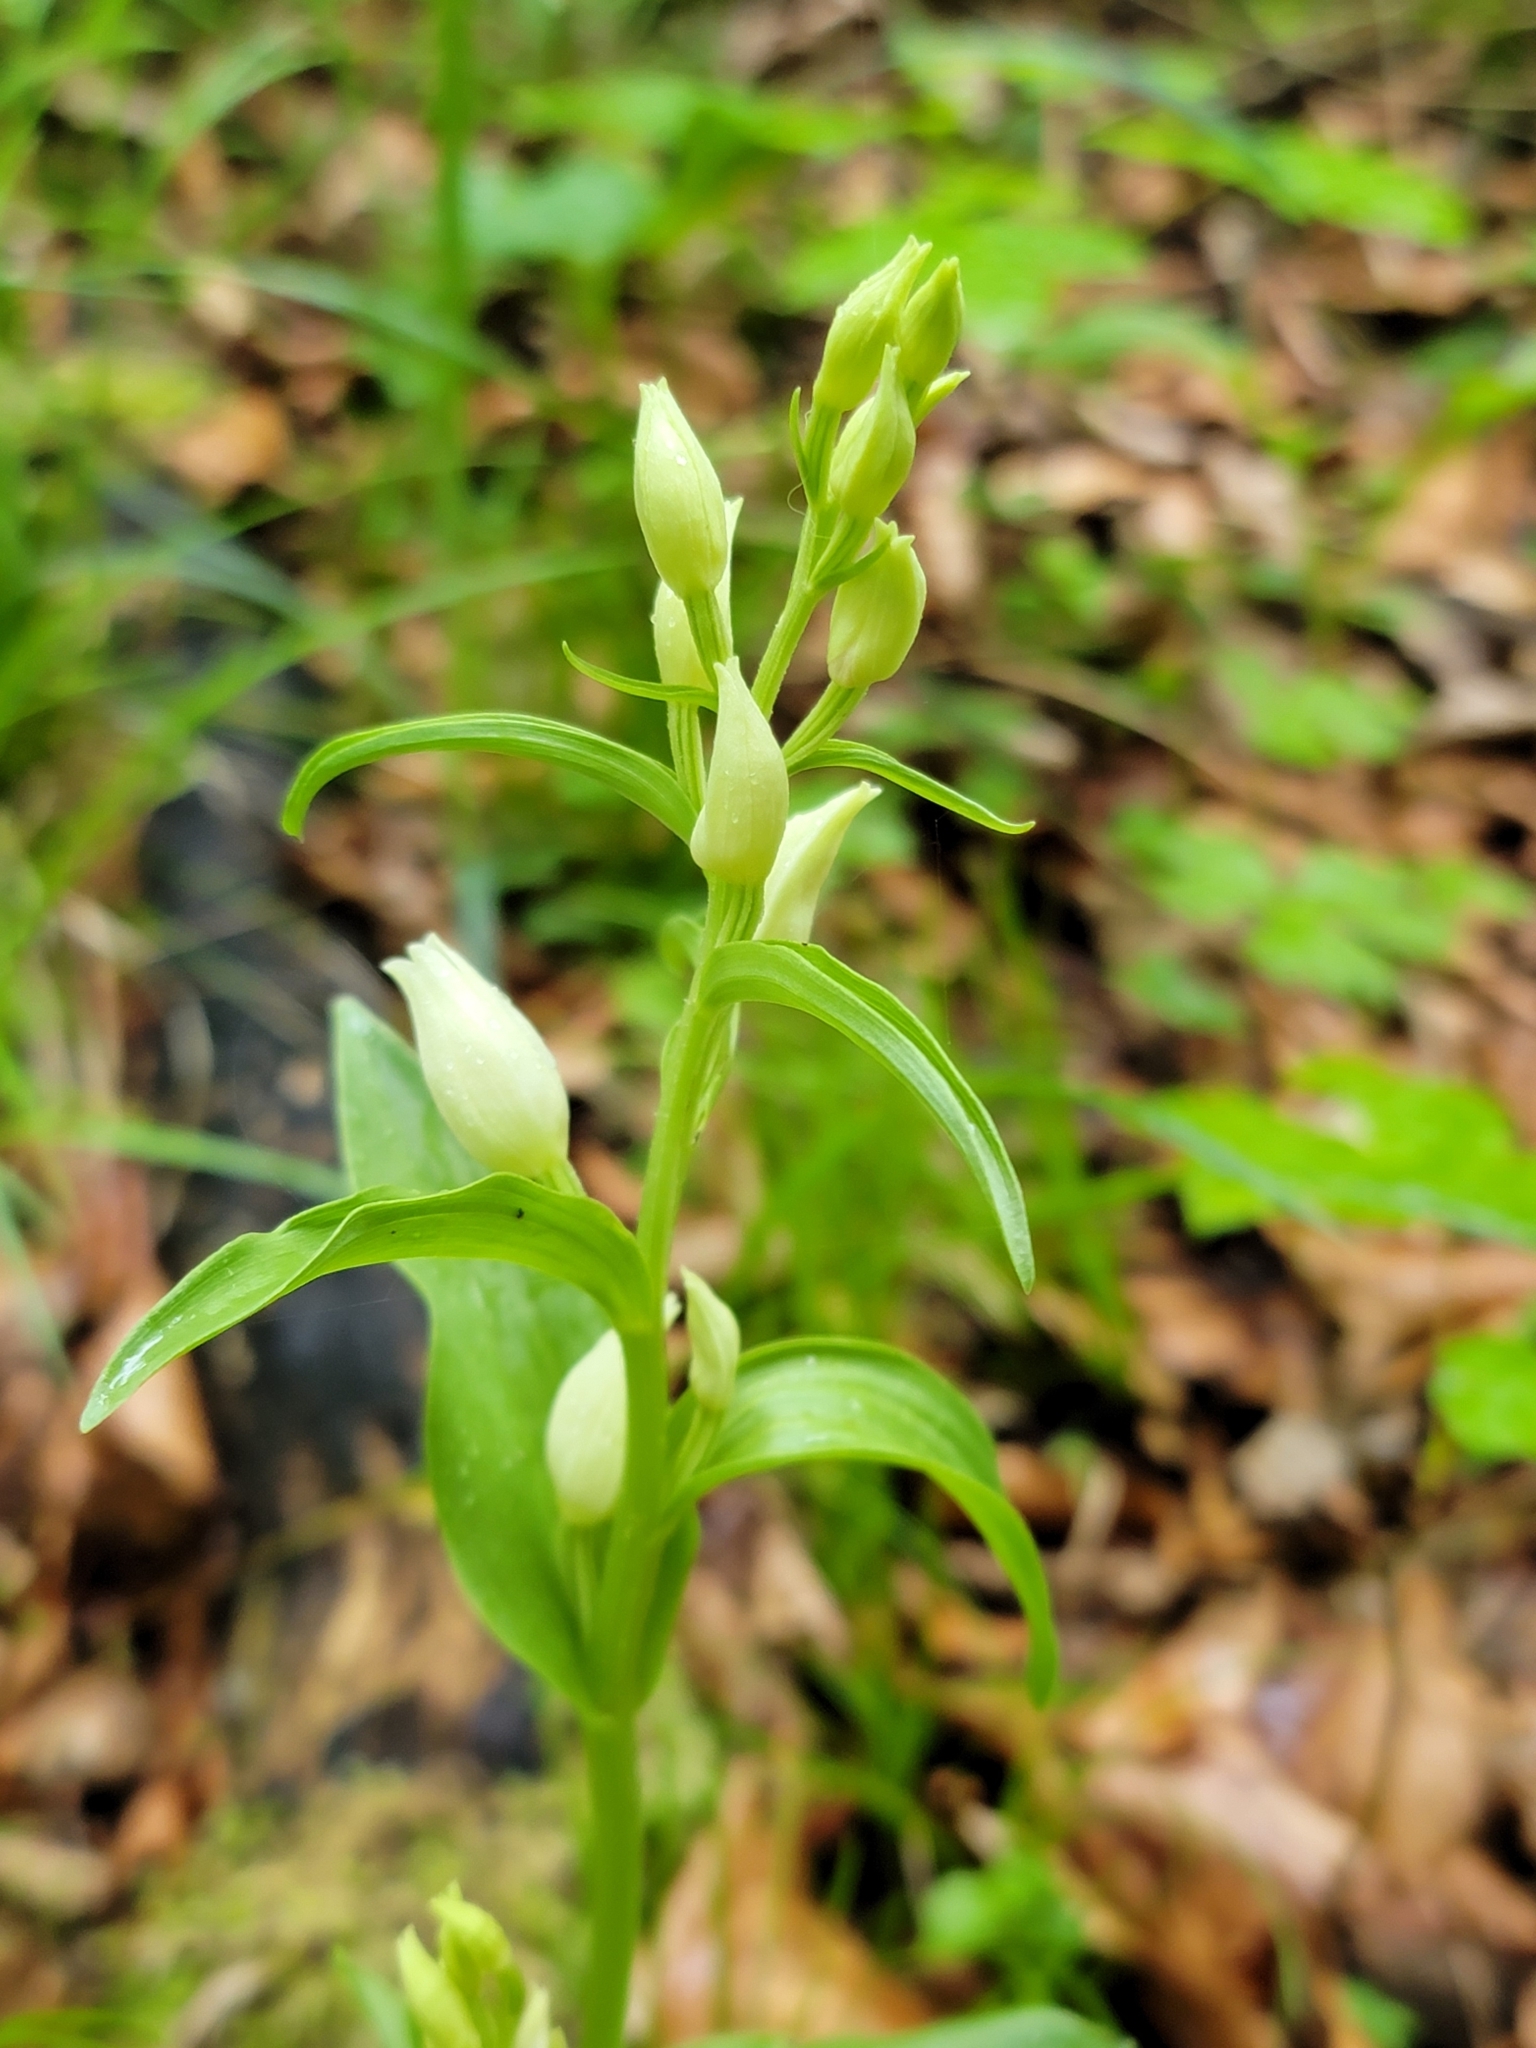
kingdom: Plantae
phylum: Tracheophyta
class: Liliopsida
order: Asparagales
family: Orchidaceae
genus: Cephalanthera
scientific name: Cephalanthera damasonium
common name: White helleborine
